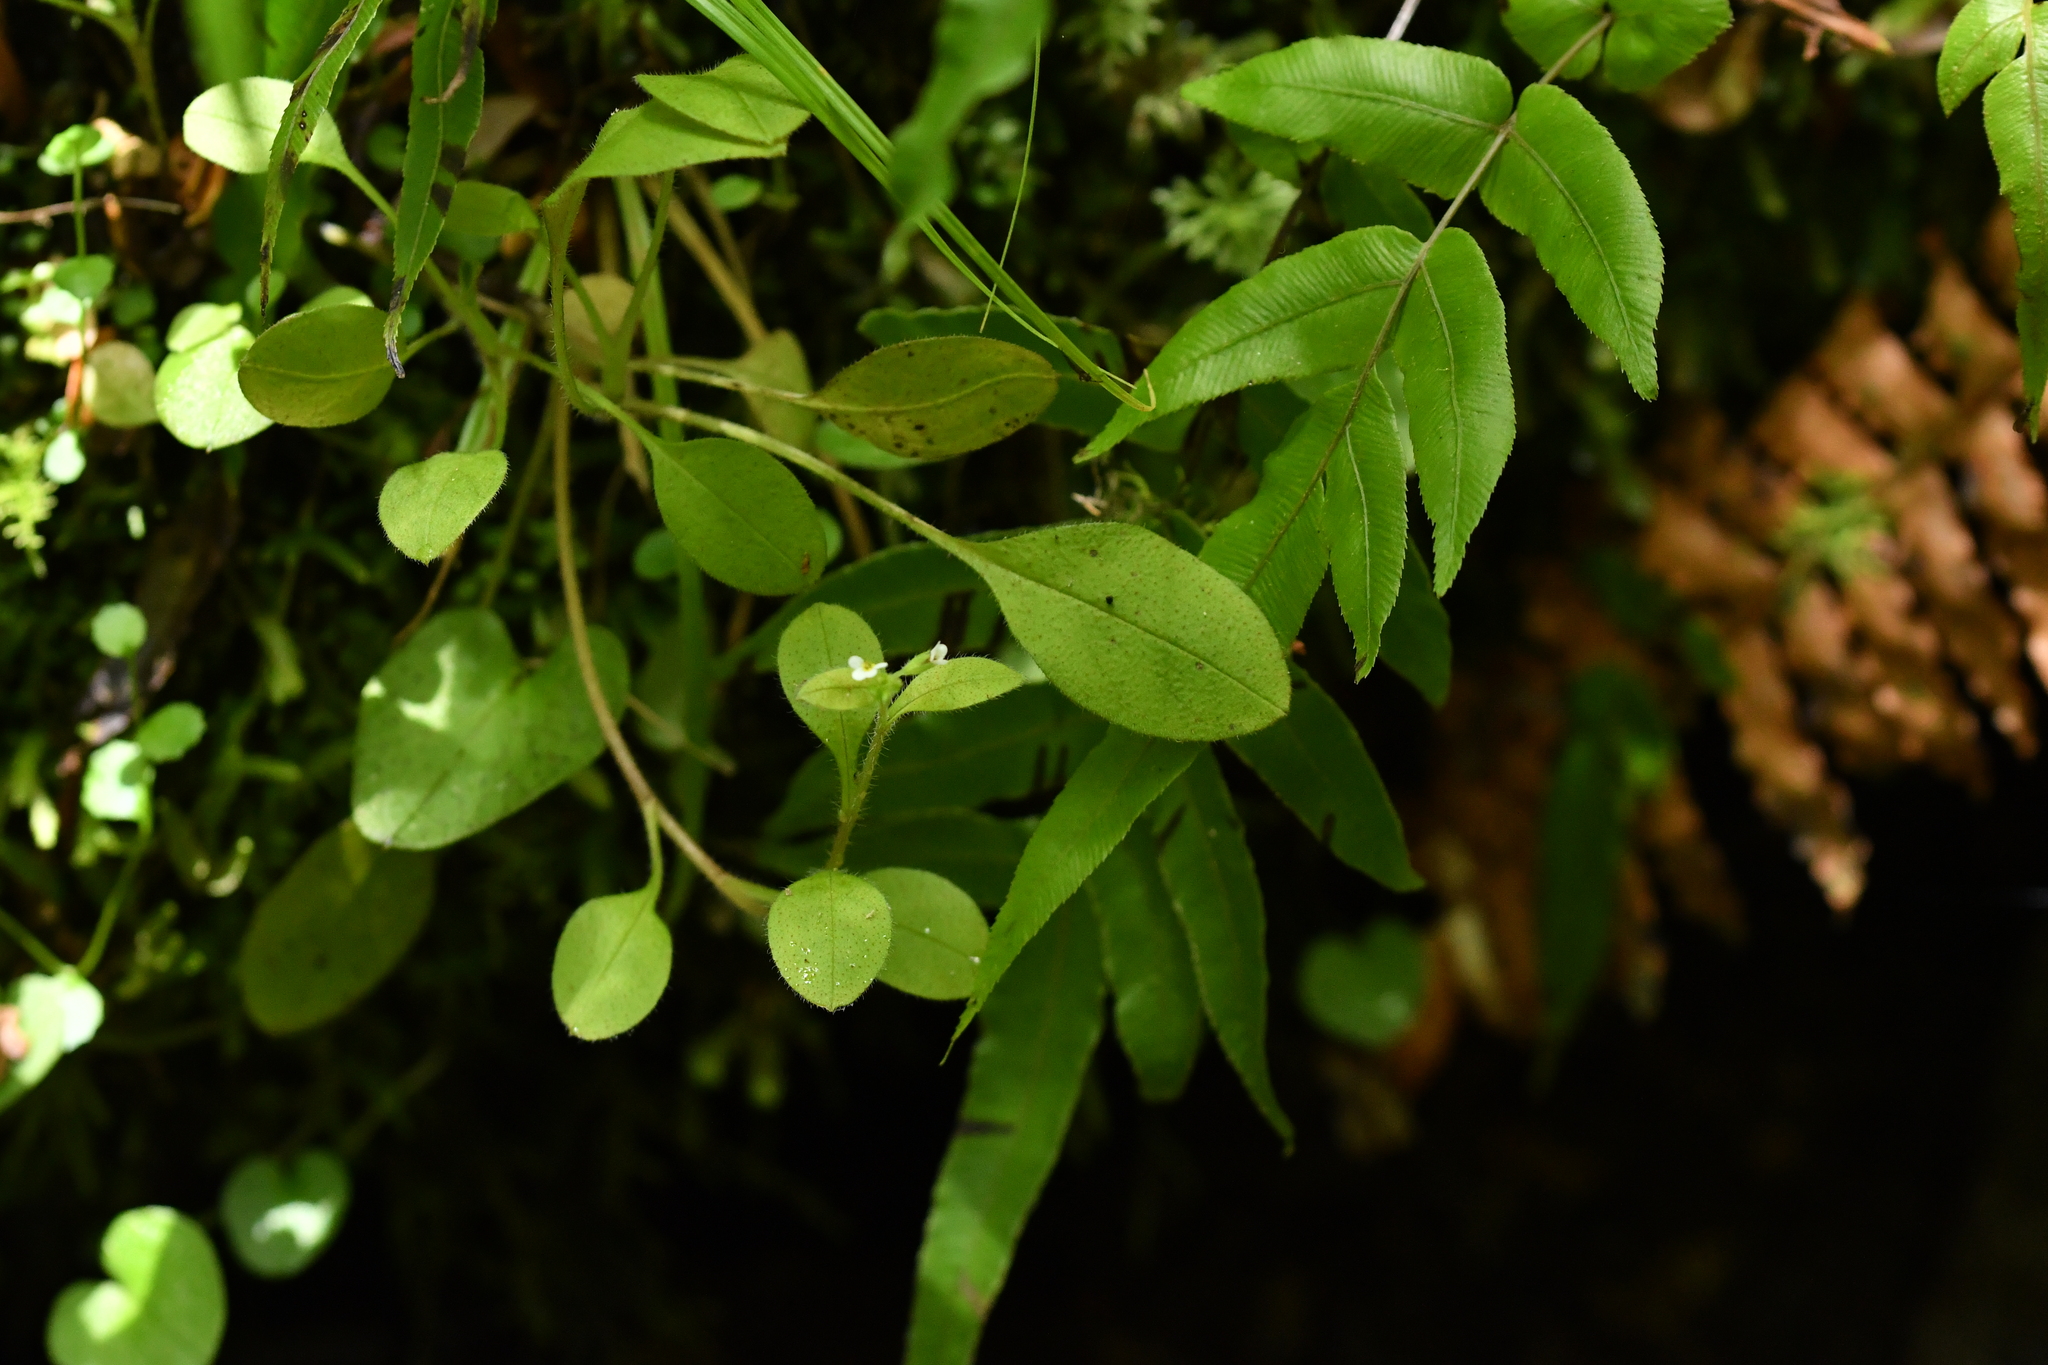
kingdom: Plantae
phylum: Tracheophyta
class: Magnoliopsida
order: Boraginales
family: Boraginaceae
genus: Myosotis
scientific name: Myosotis forsteri
